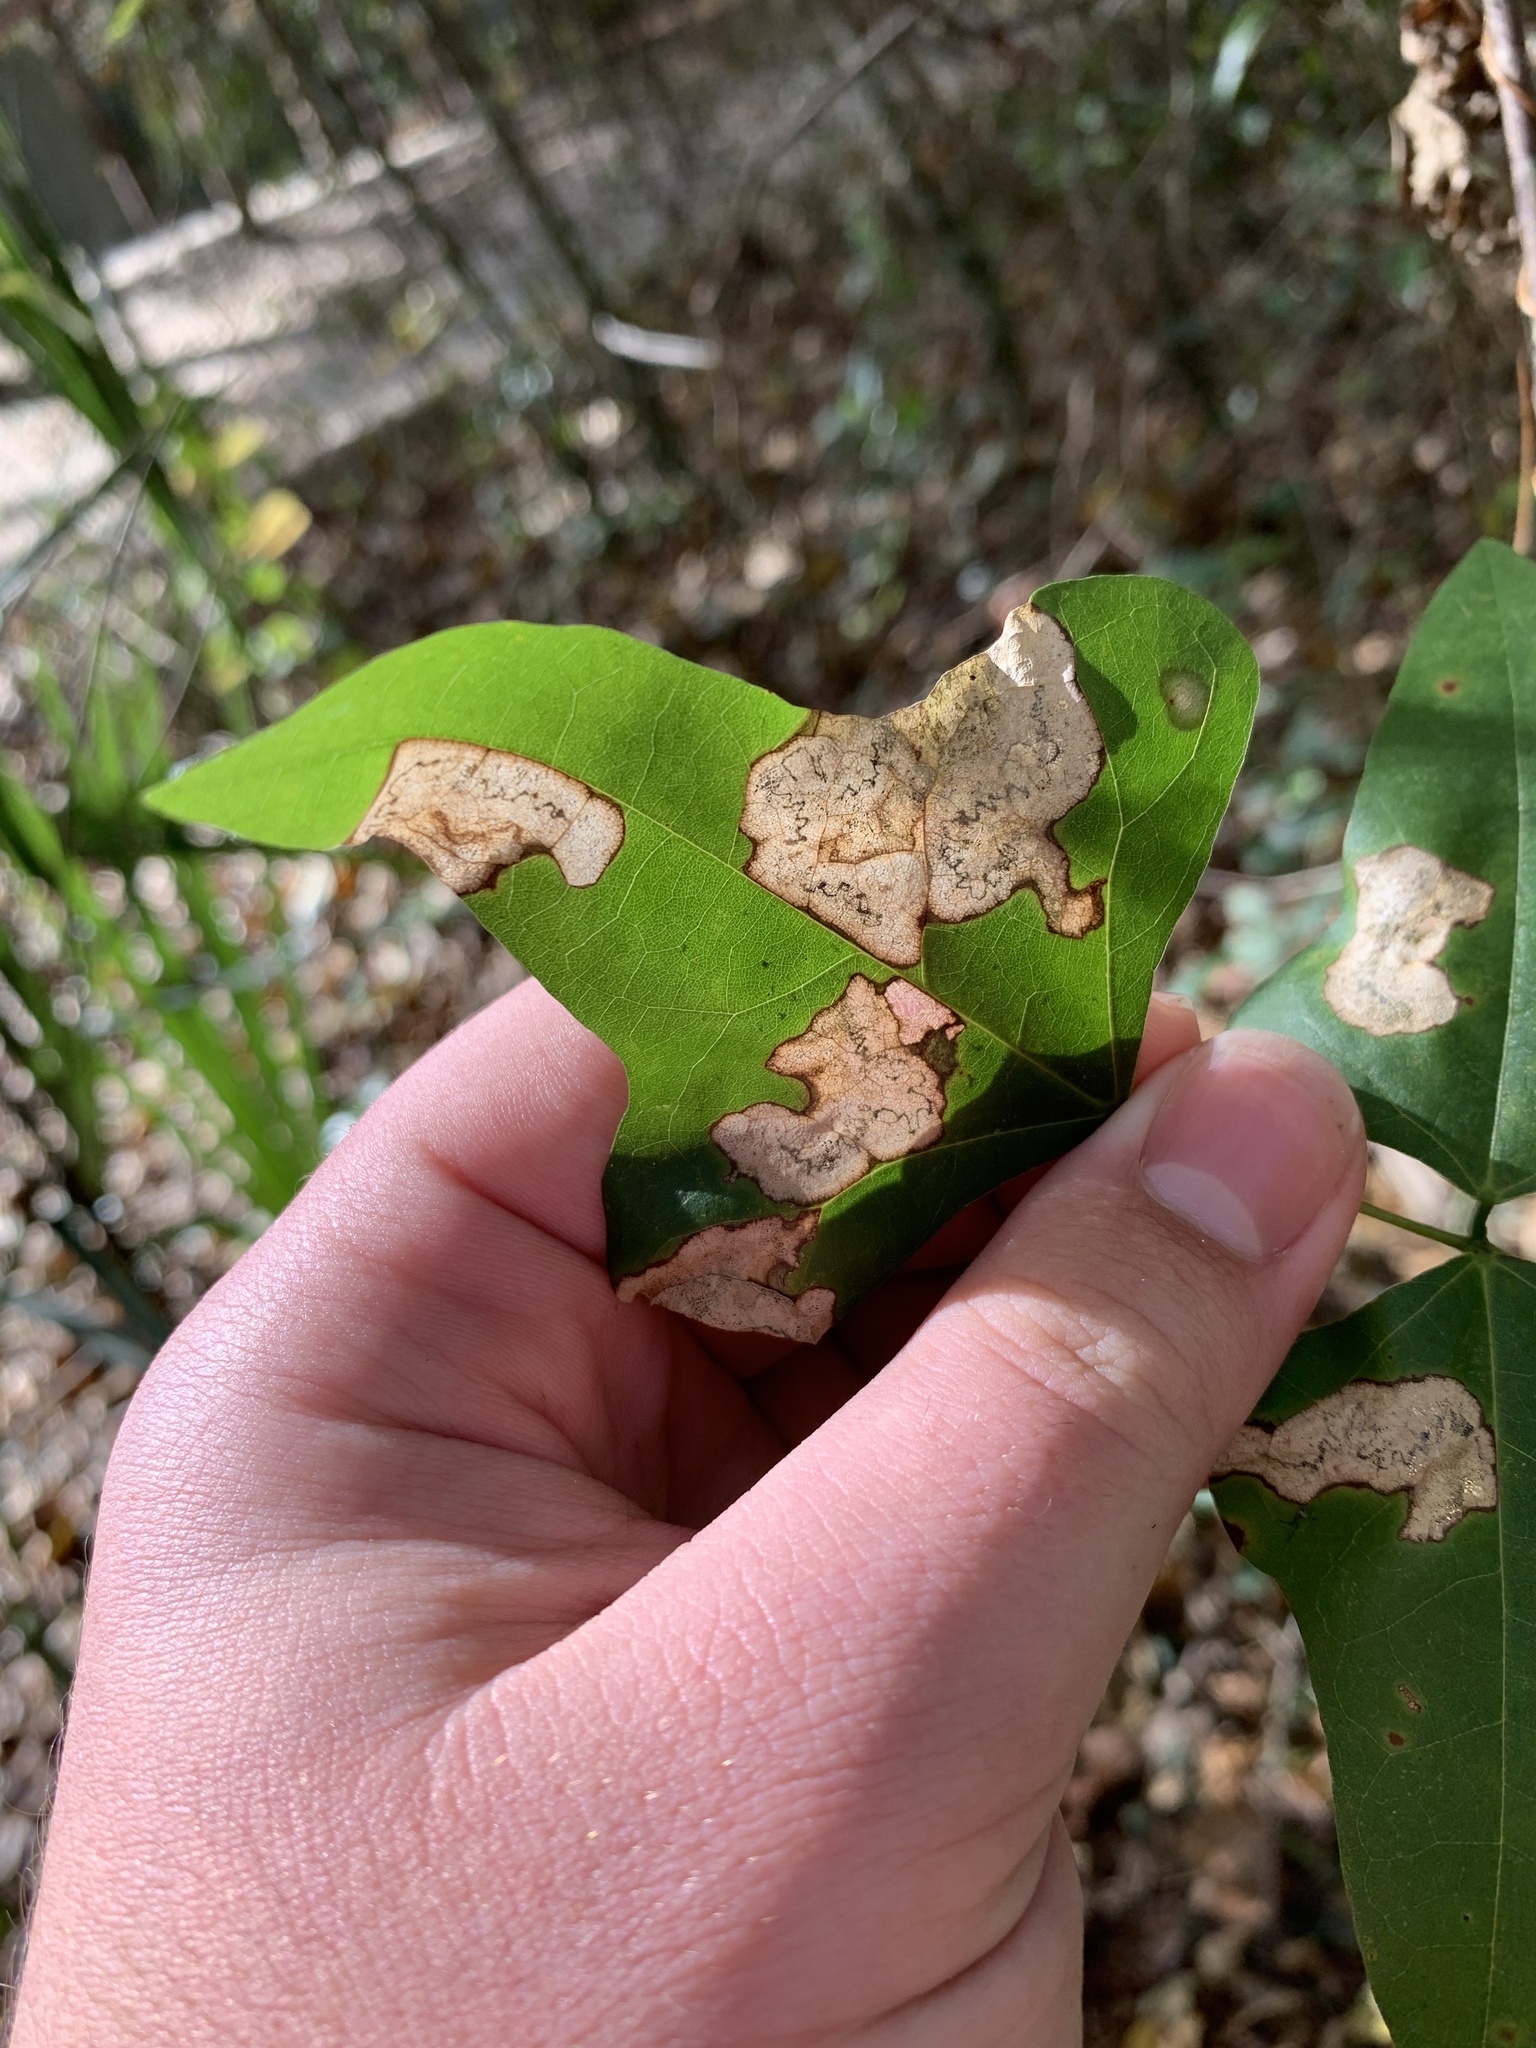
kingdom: Animalia
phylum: Arthropoda
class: Insecta
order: Lepidoptera
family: Lyonetiidae
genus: Leucoptera
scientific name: Leucoptera erythrinella
